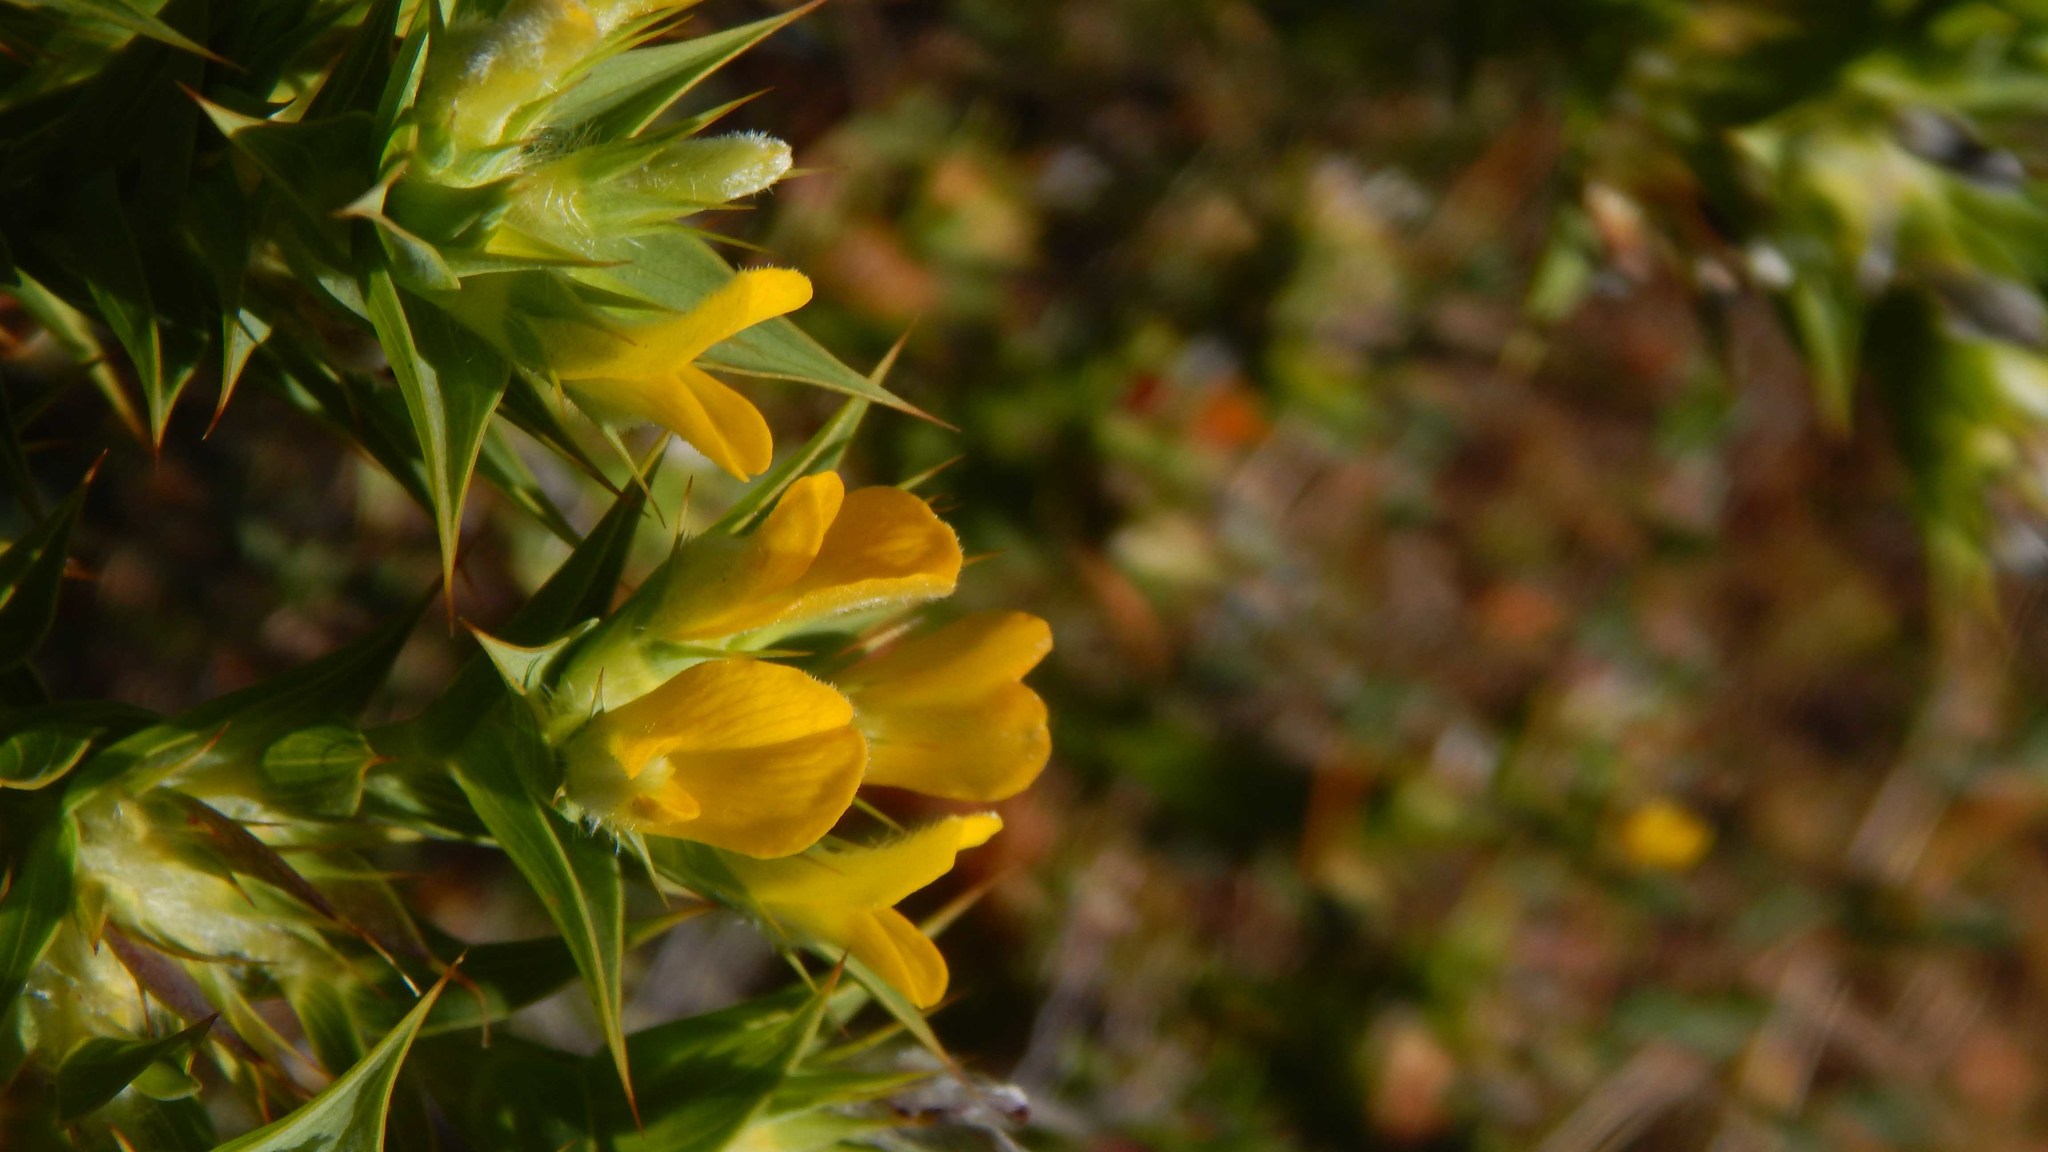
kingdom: Plantae
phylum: Tracheophyta
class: Magnoliopsida
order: Fabales
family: Fabaceae
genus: Aspalathus
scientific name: Aspalathus cordata
